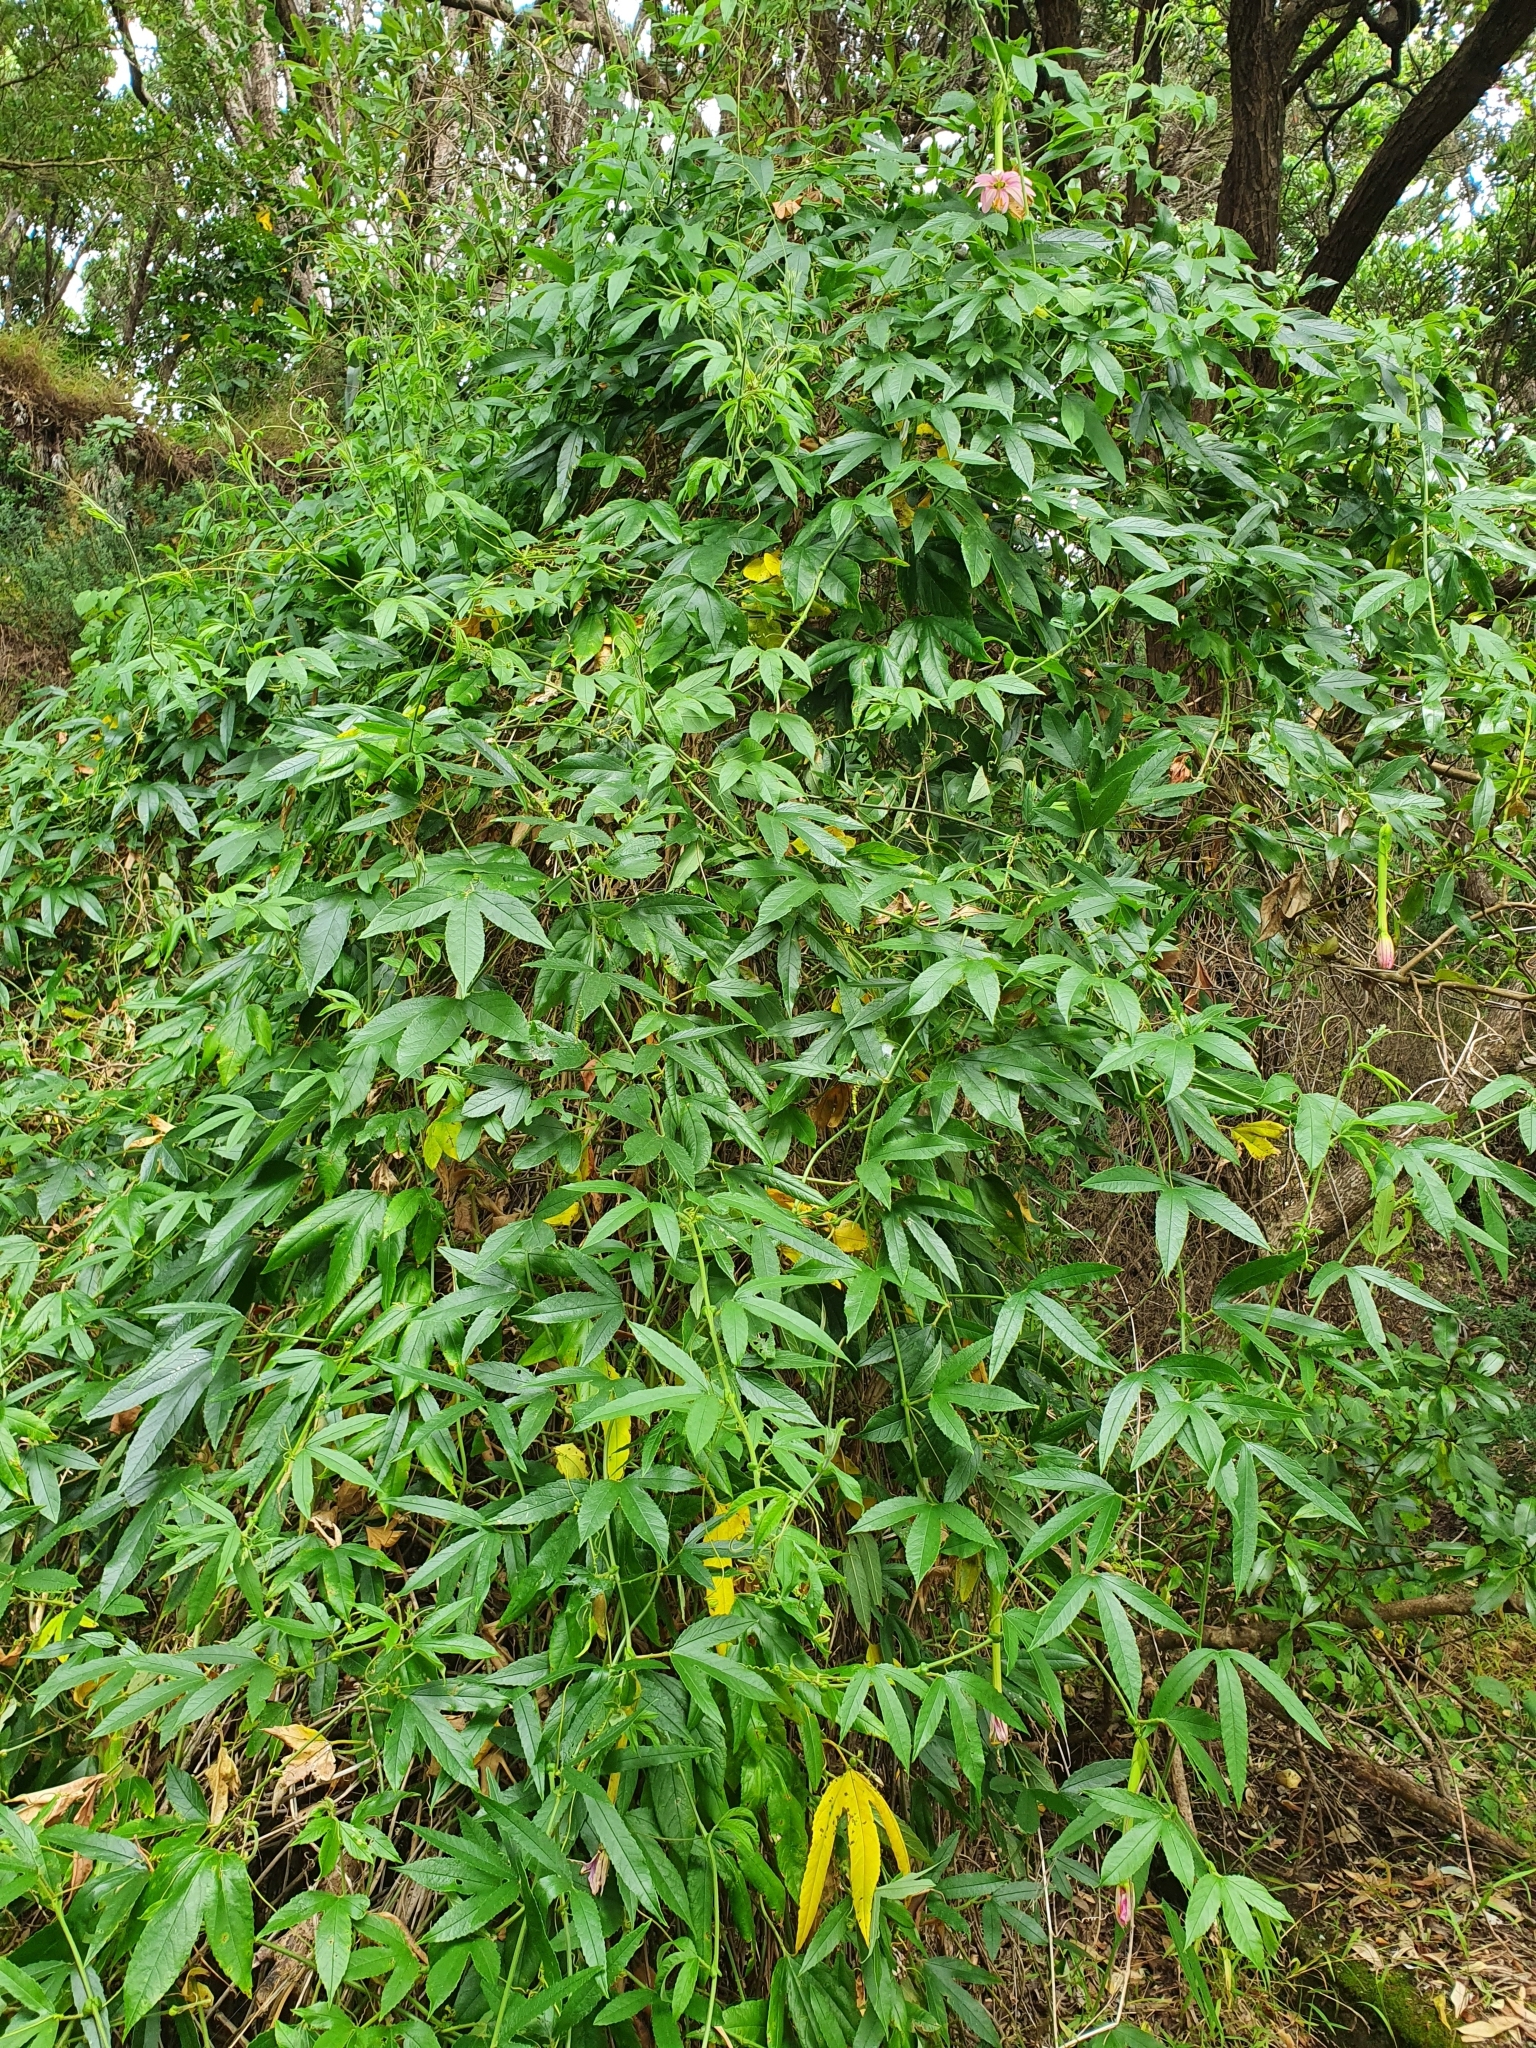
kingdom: Plantae
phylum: Tracheophyta
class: Magnoliopsida
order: Malpighiales
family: Passifloraceae
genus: Passiflora
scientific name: Passiflora tarminiana
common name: Banana poka
